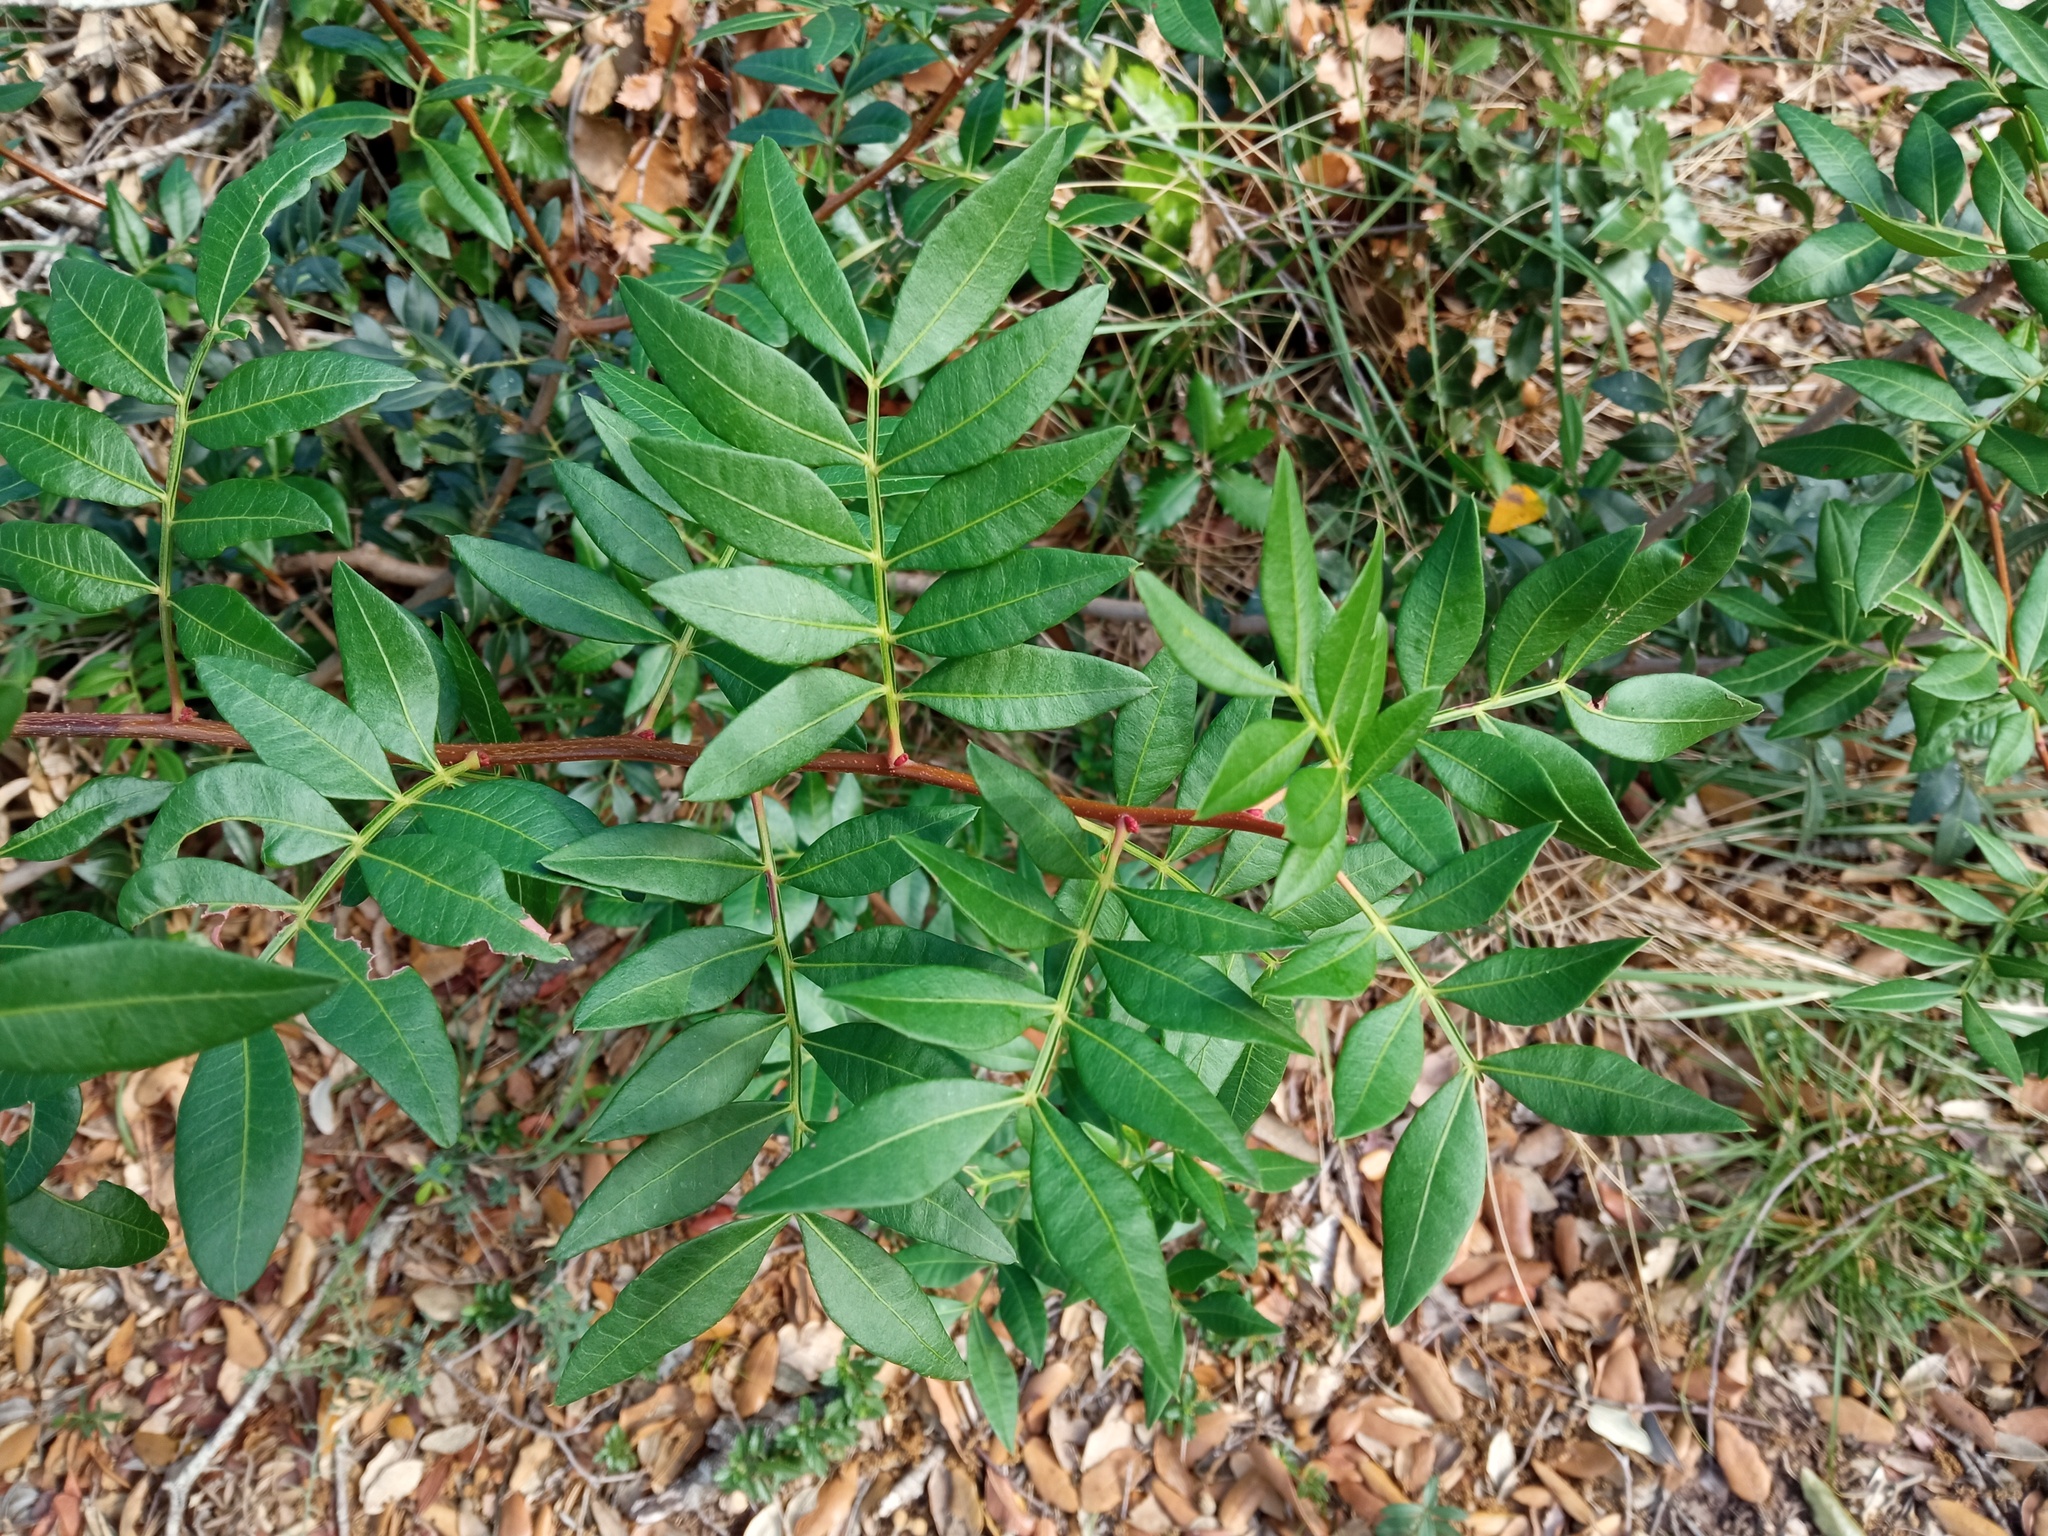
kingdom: Plantae
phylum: Tracheophyta
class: Magnoliopsida
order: Sapindales
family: Anacardiaceae
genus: Pistacia
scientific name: Pistacia lentiscus
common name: Lentisk
